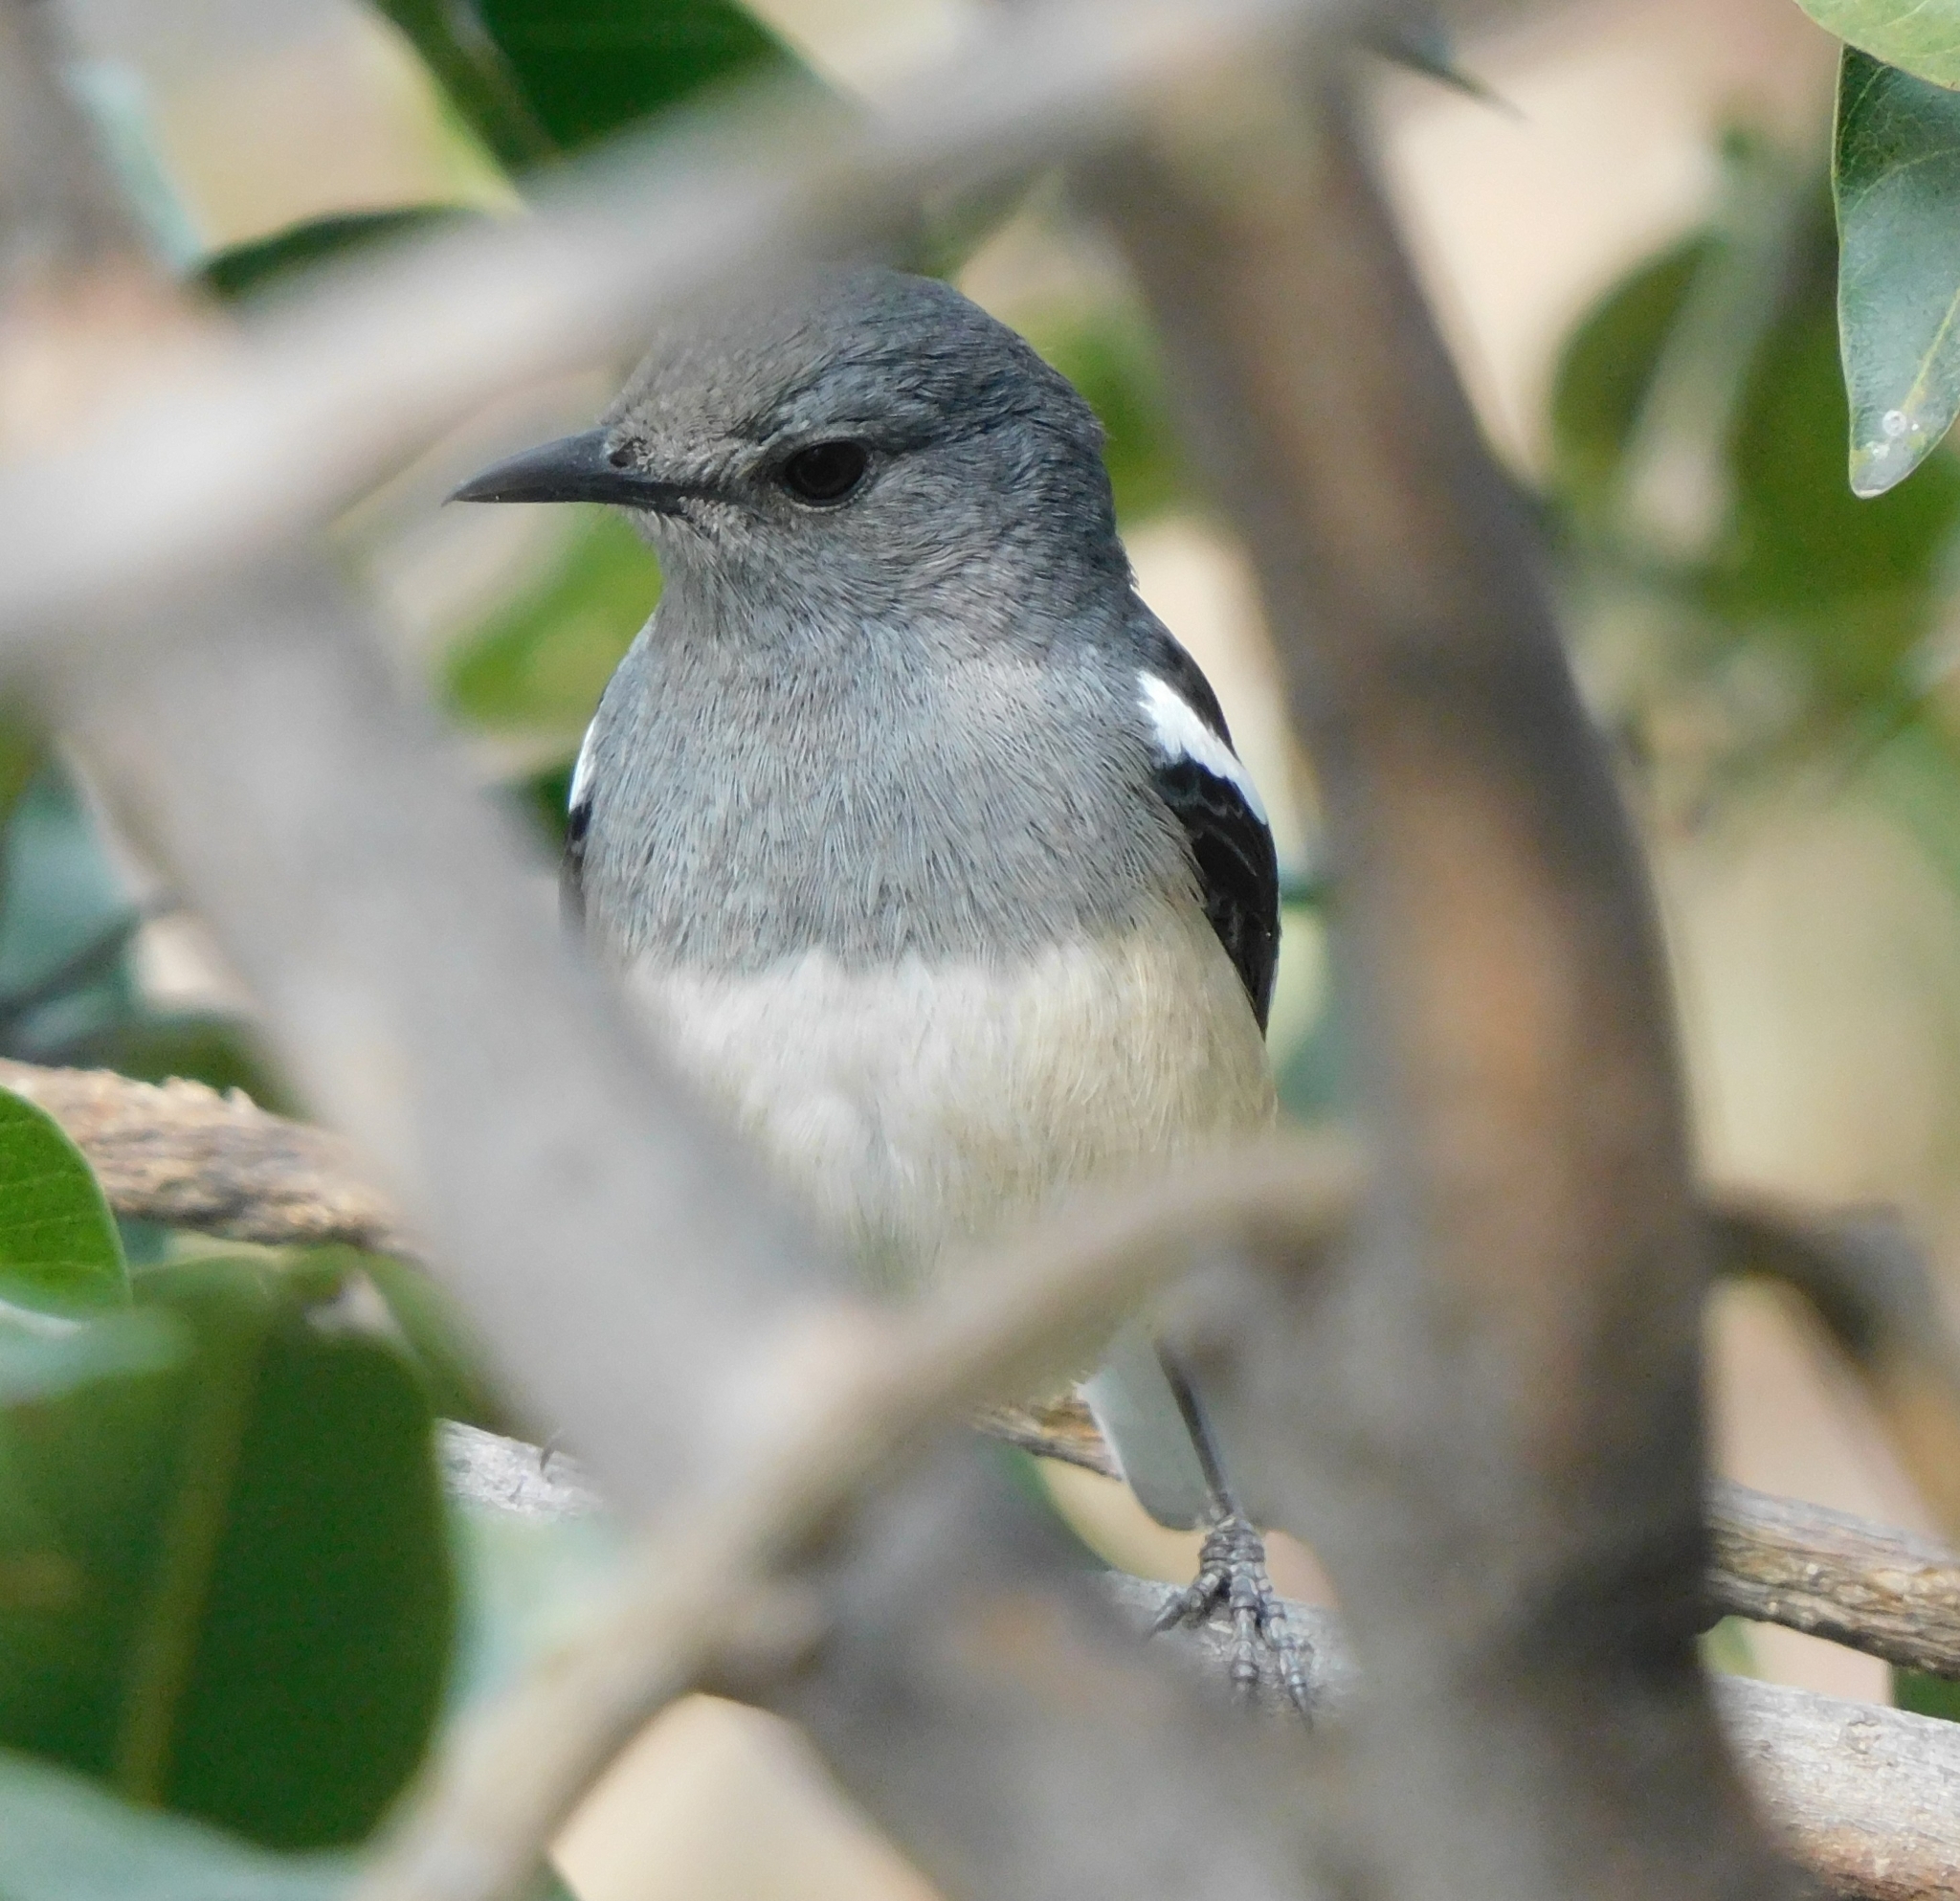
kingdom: Animalia
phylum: Chordata
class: Aves
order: Passeriformes
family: Muscicapidae
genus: Copsychus
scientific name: Copsychus saularis
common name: Oriental magpie-robin
